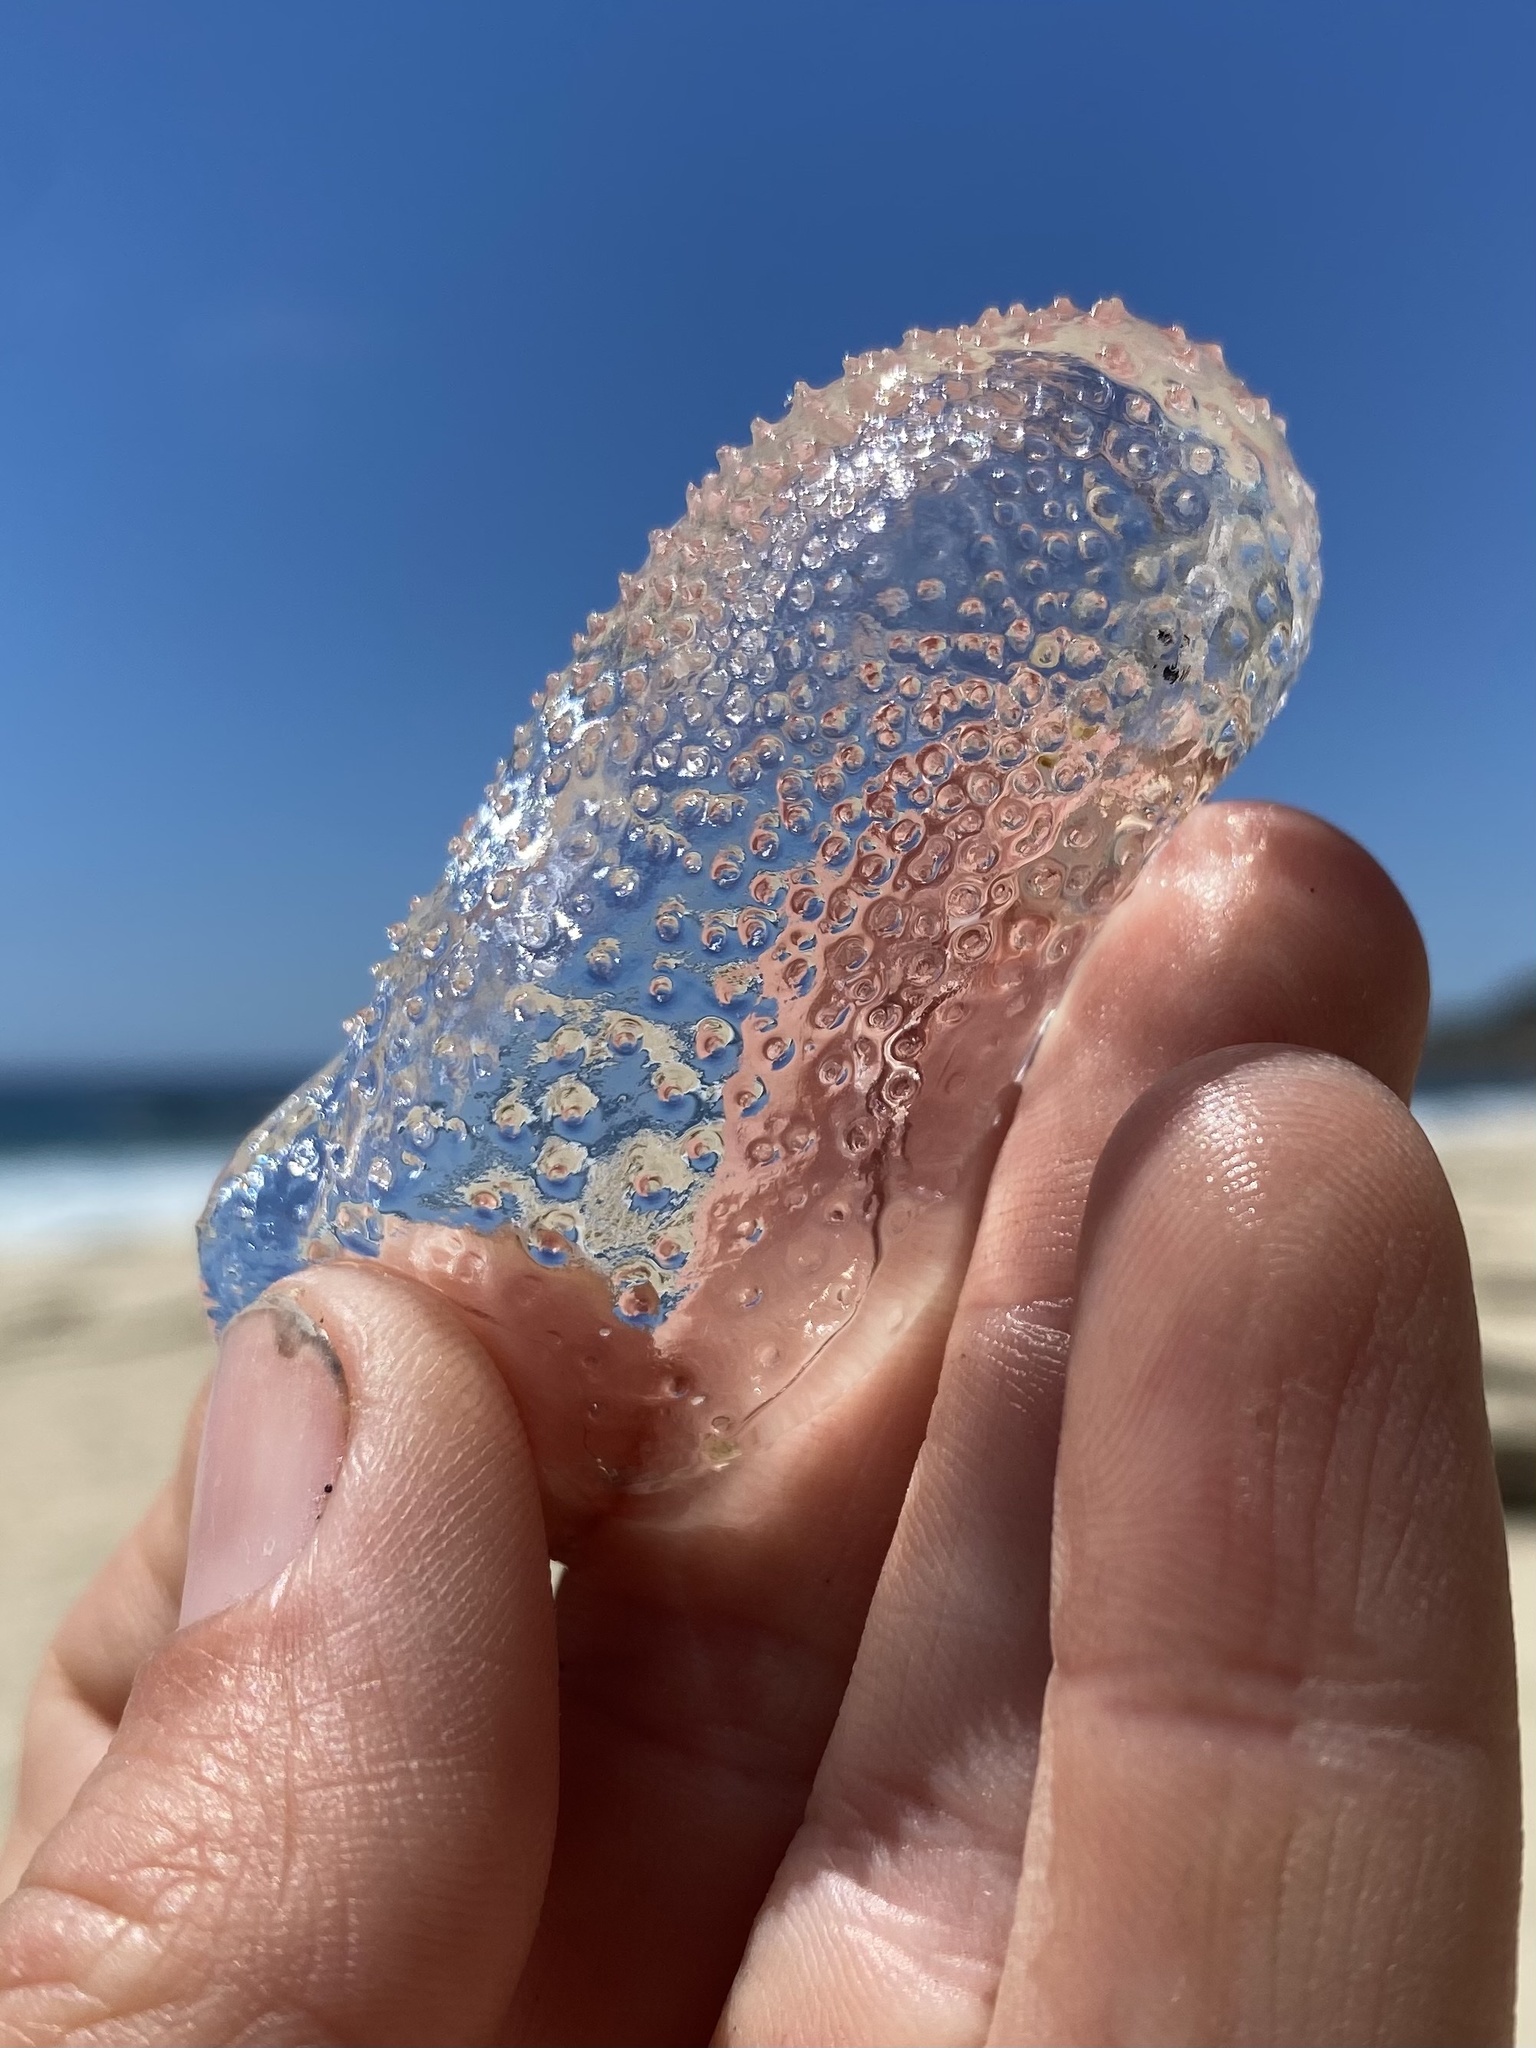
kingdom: Animalia
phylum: Mollusca
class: Gastropoda
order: Pteropoda
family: Cymbuliidae
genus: Corolla
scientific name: Corolla spectabilis
